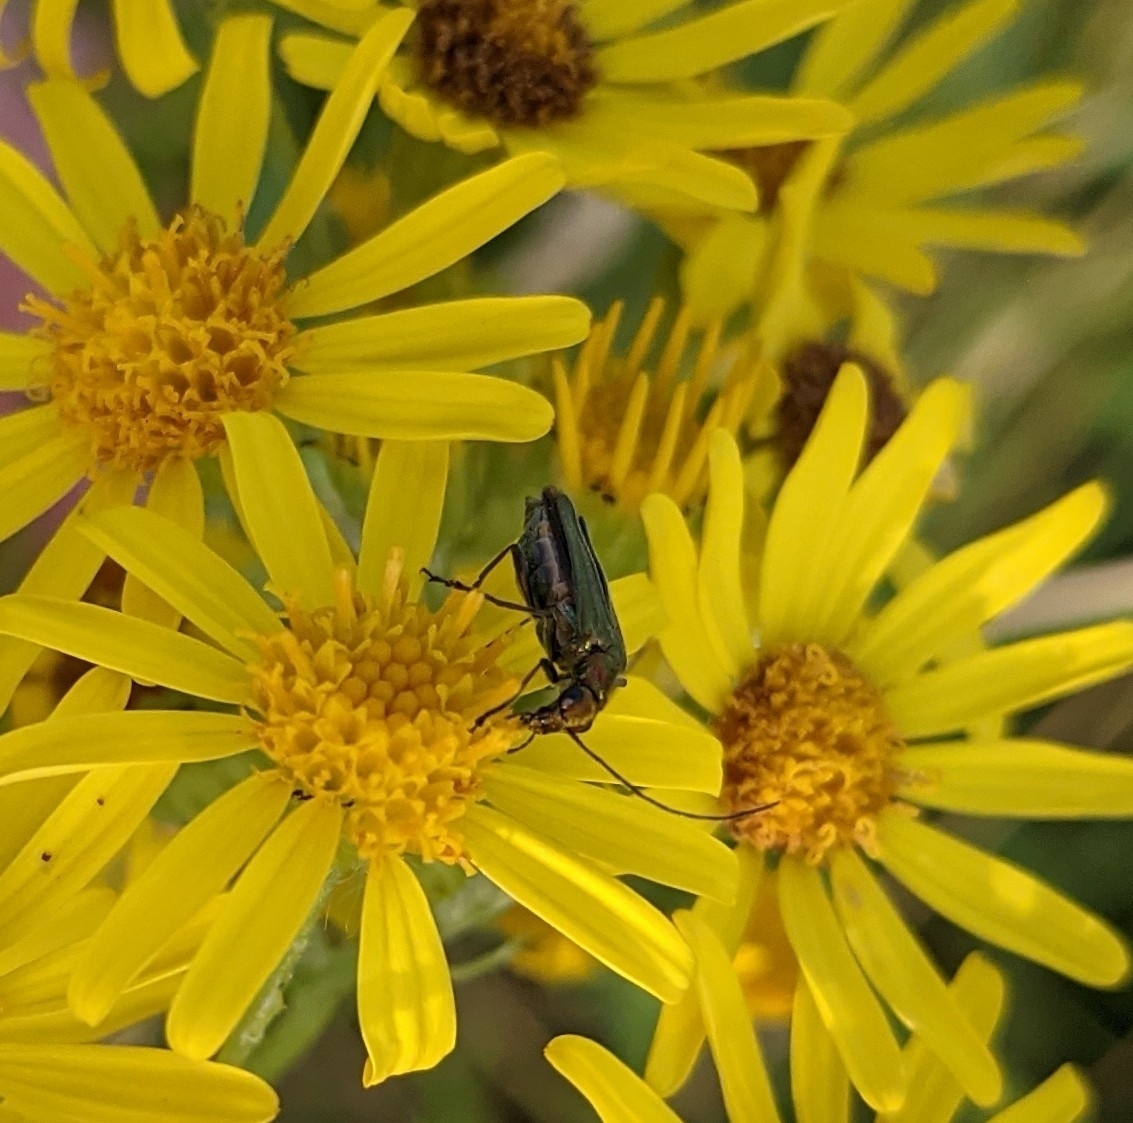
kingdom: Animalia
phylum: Arthropoda
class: Insecta
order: Coleoptera
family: Oedemeridae
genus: Oedemera
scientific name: Oedemera nobilis
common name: Swollen-thighed beetle
